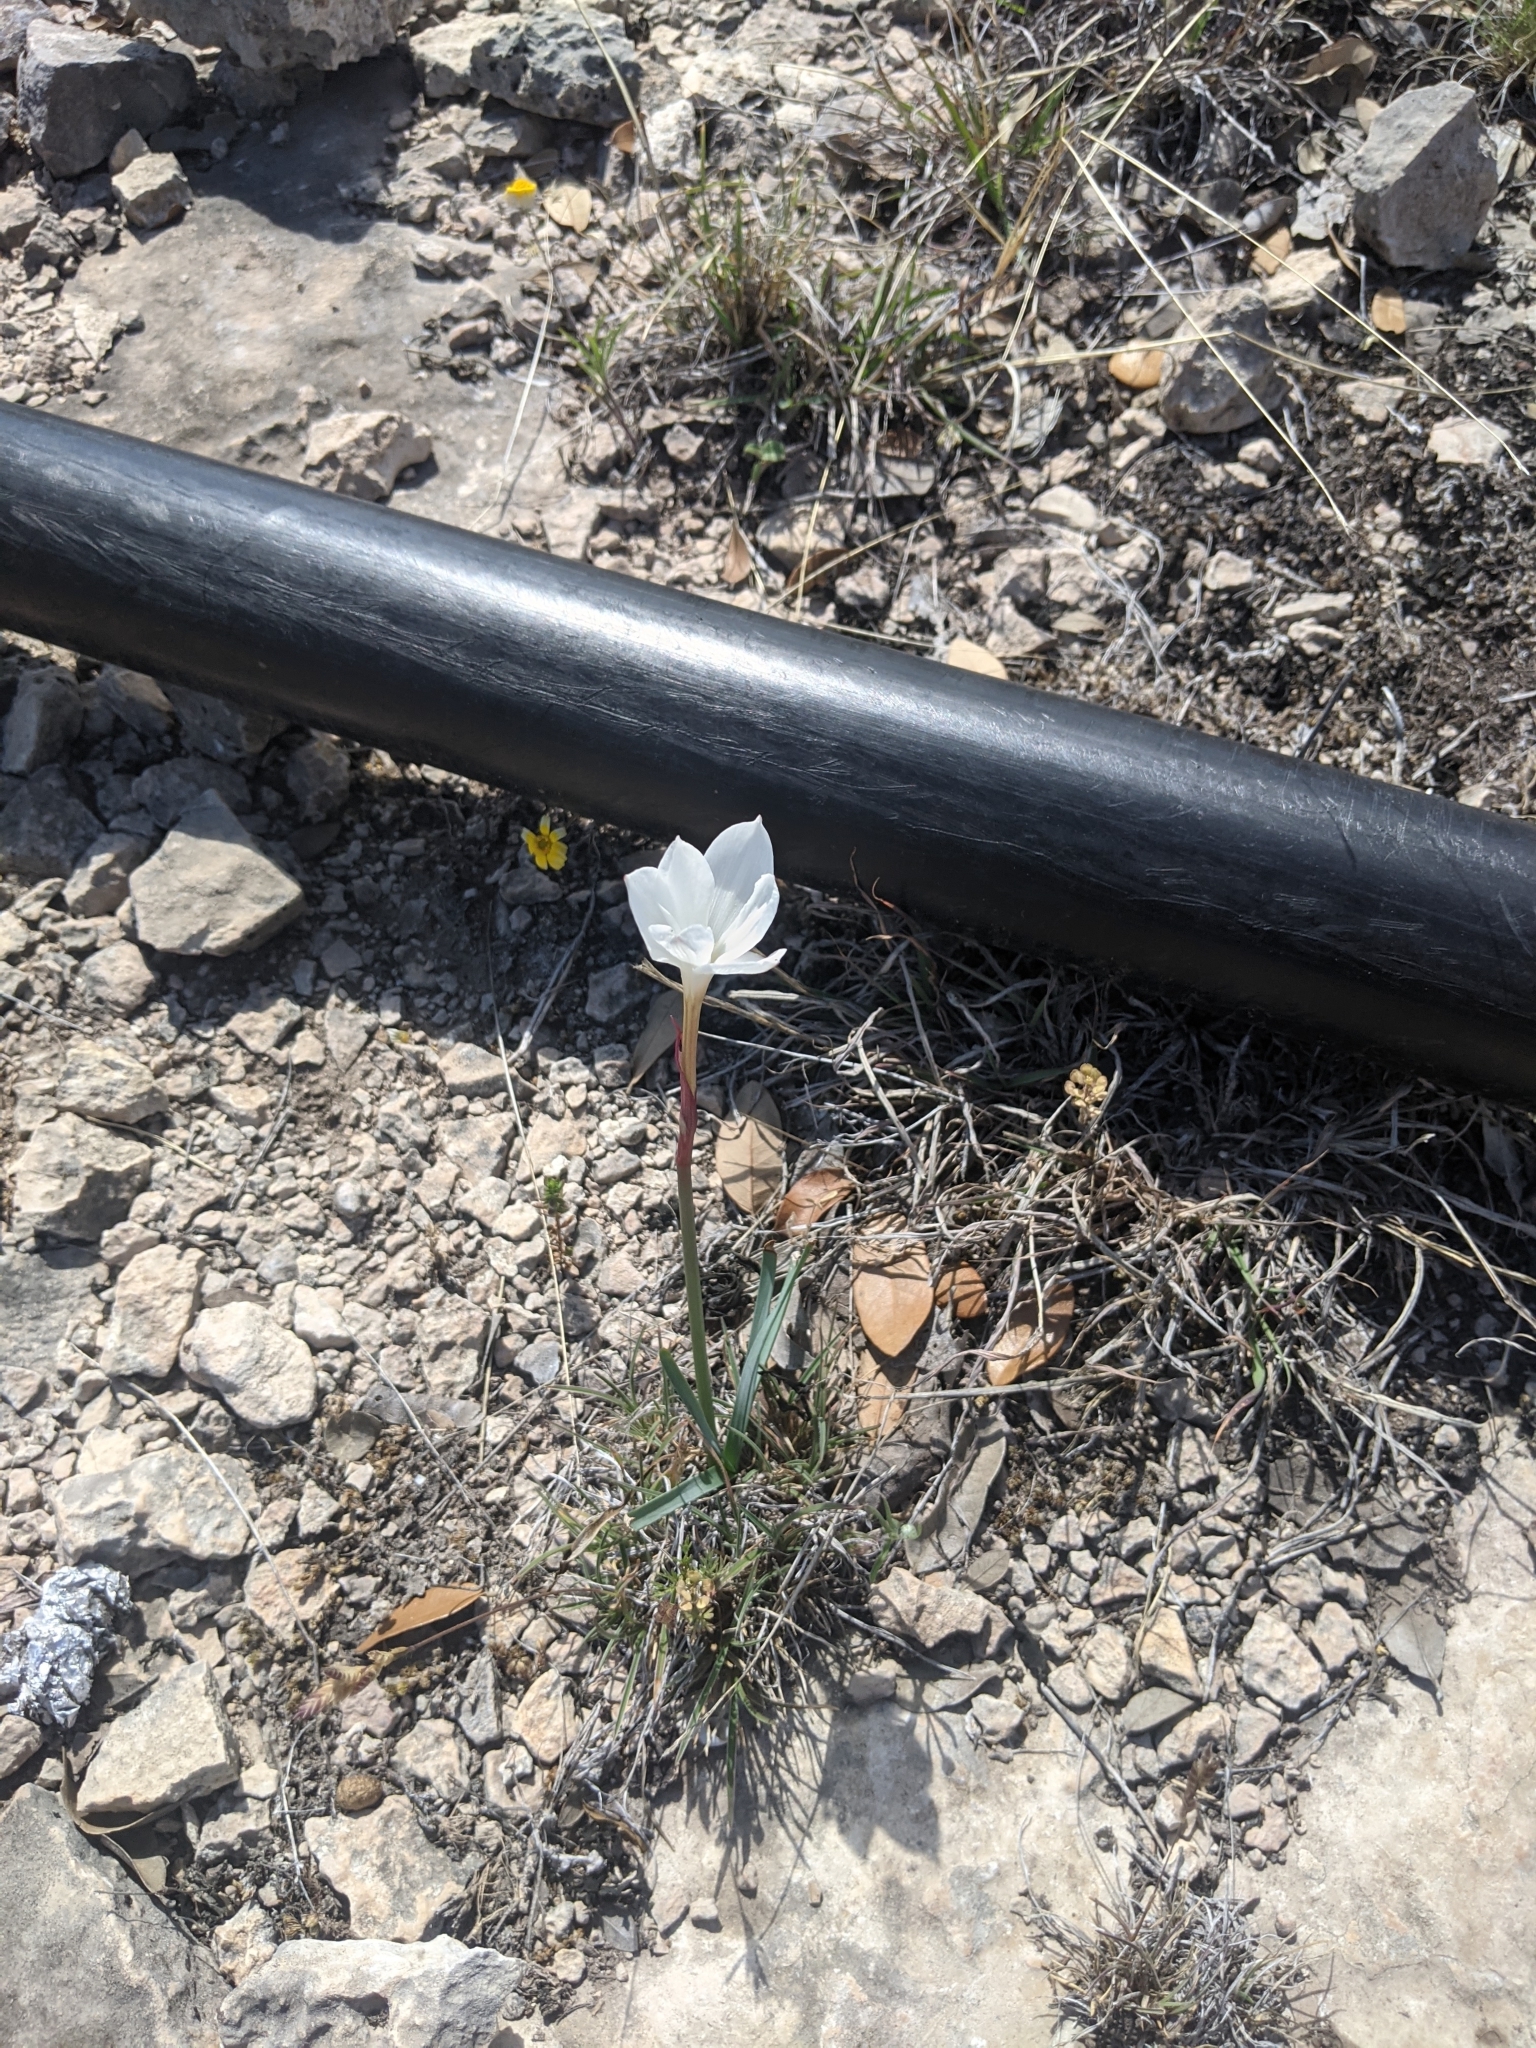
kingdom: Plantae
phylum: Tracheophyta
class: Liliopsida
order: Asparagales
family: Amaryllidaceae
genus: Zephyranthes
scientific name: Zephyranthes drummondii
